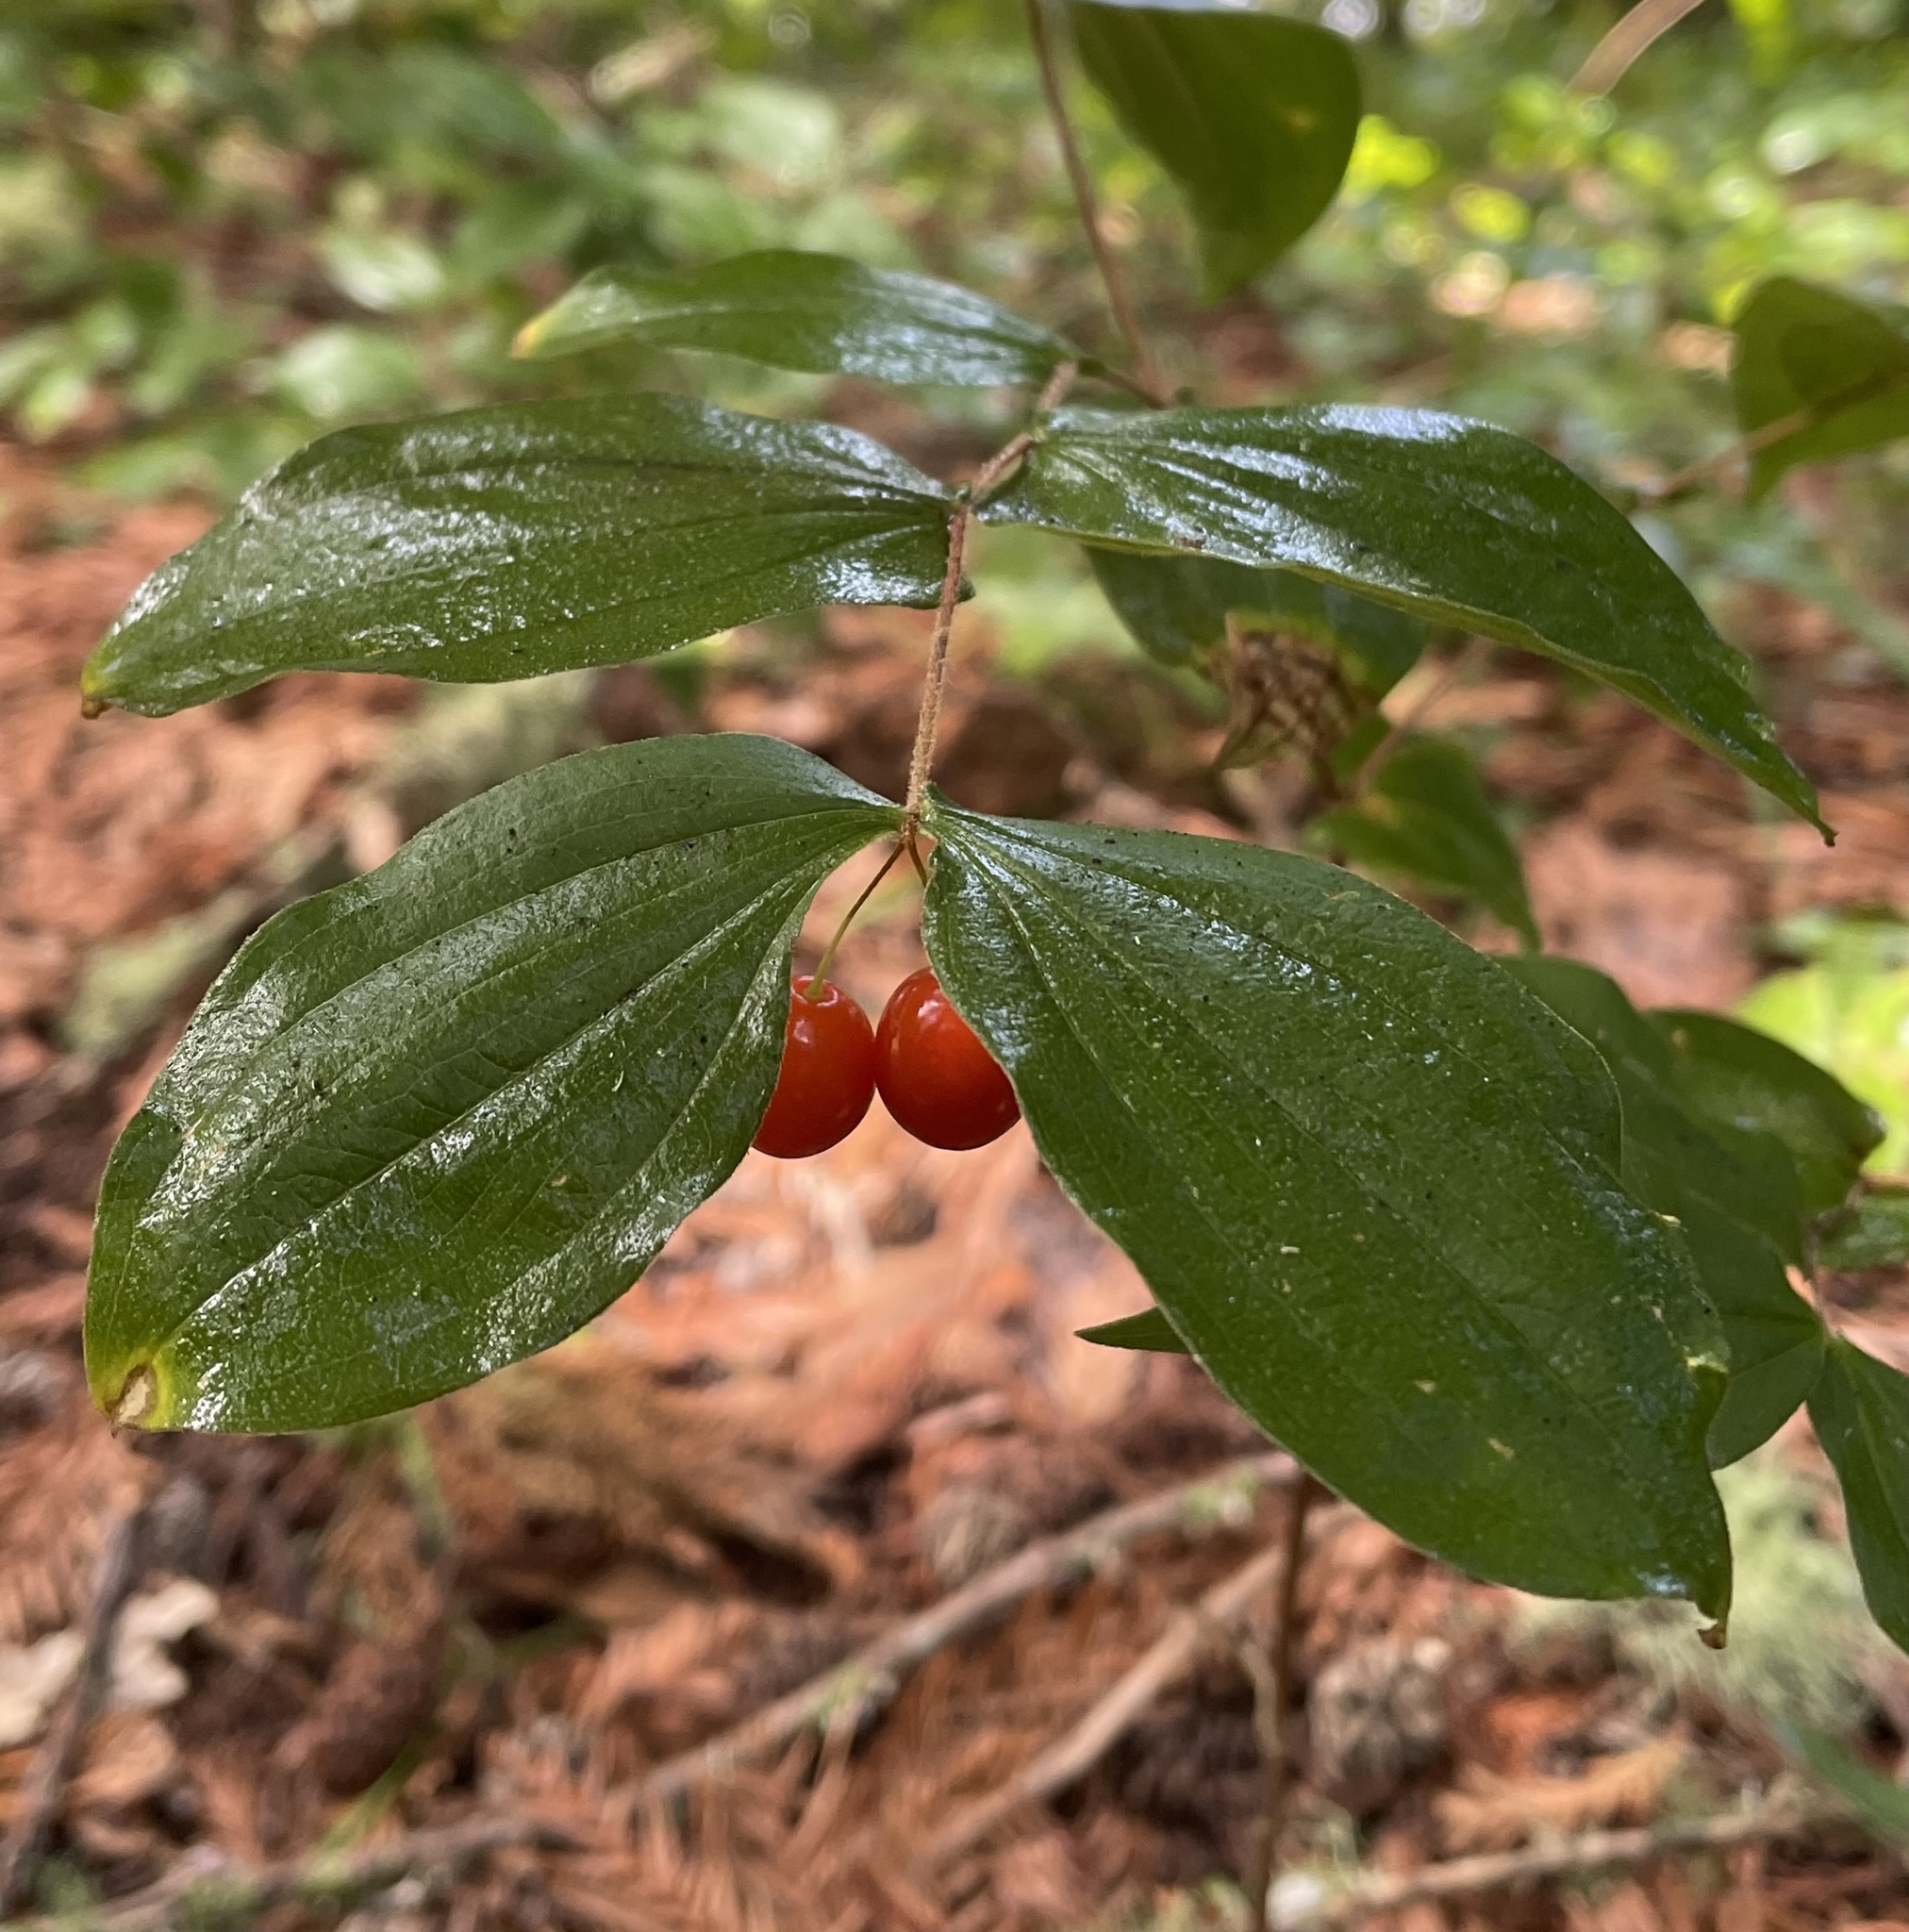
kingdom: Plantae
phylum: Tracheophyta
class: Liliopsida
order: Liliales
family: Liliaceae
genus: Prosartes
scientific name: Prosartes hookeri
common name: Fairy-bells
